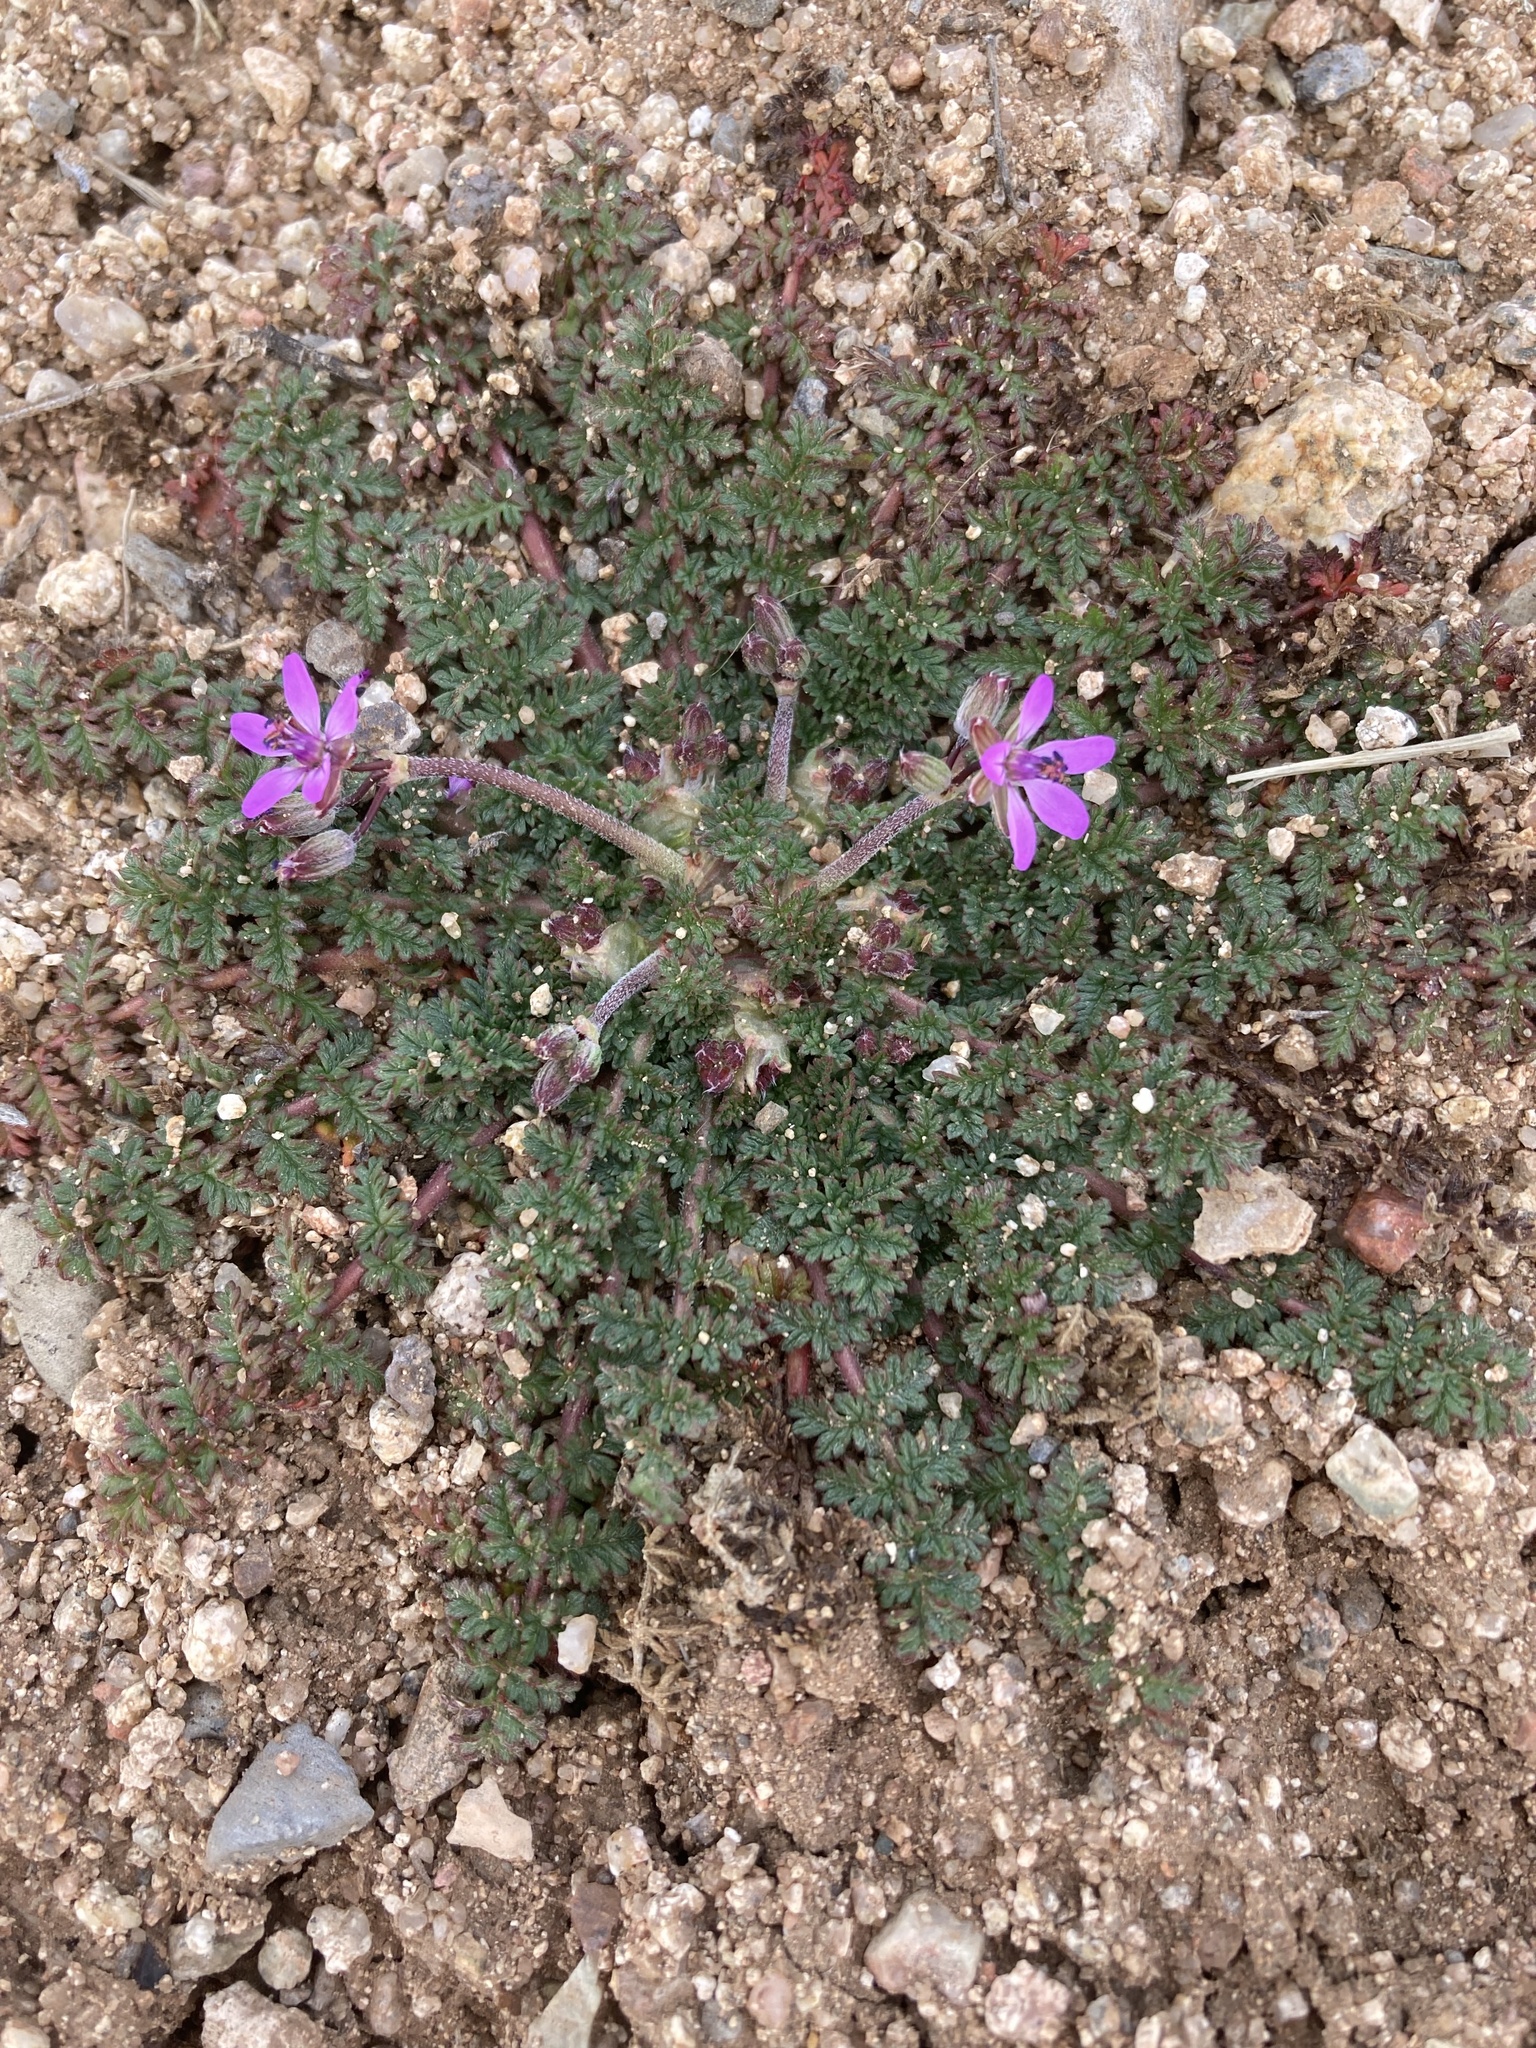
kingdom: Plantae
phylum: Tracheophyta
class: Magnoliopsida
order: Geraniales
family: Geraniaceae
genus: Erodium
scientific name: Erodium cicutarium
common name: Common stork's-bill
